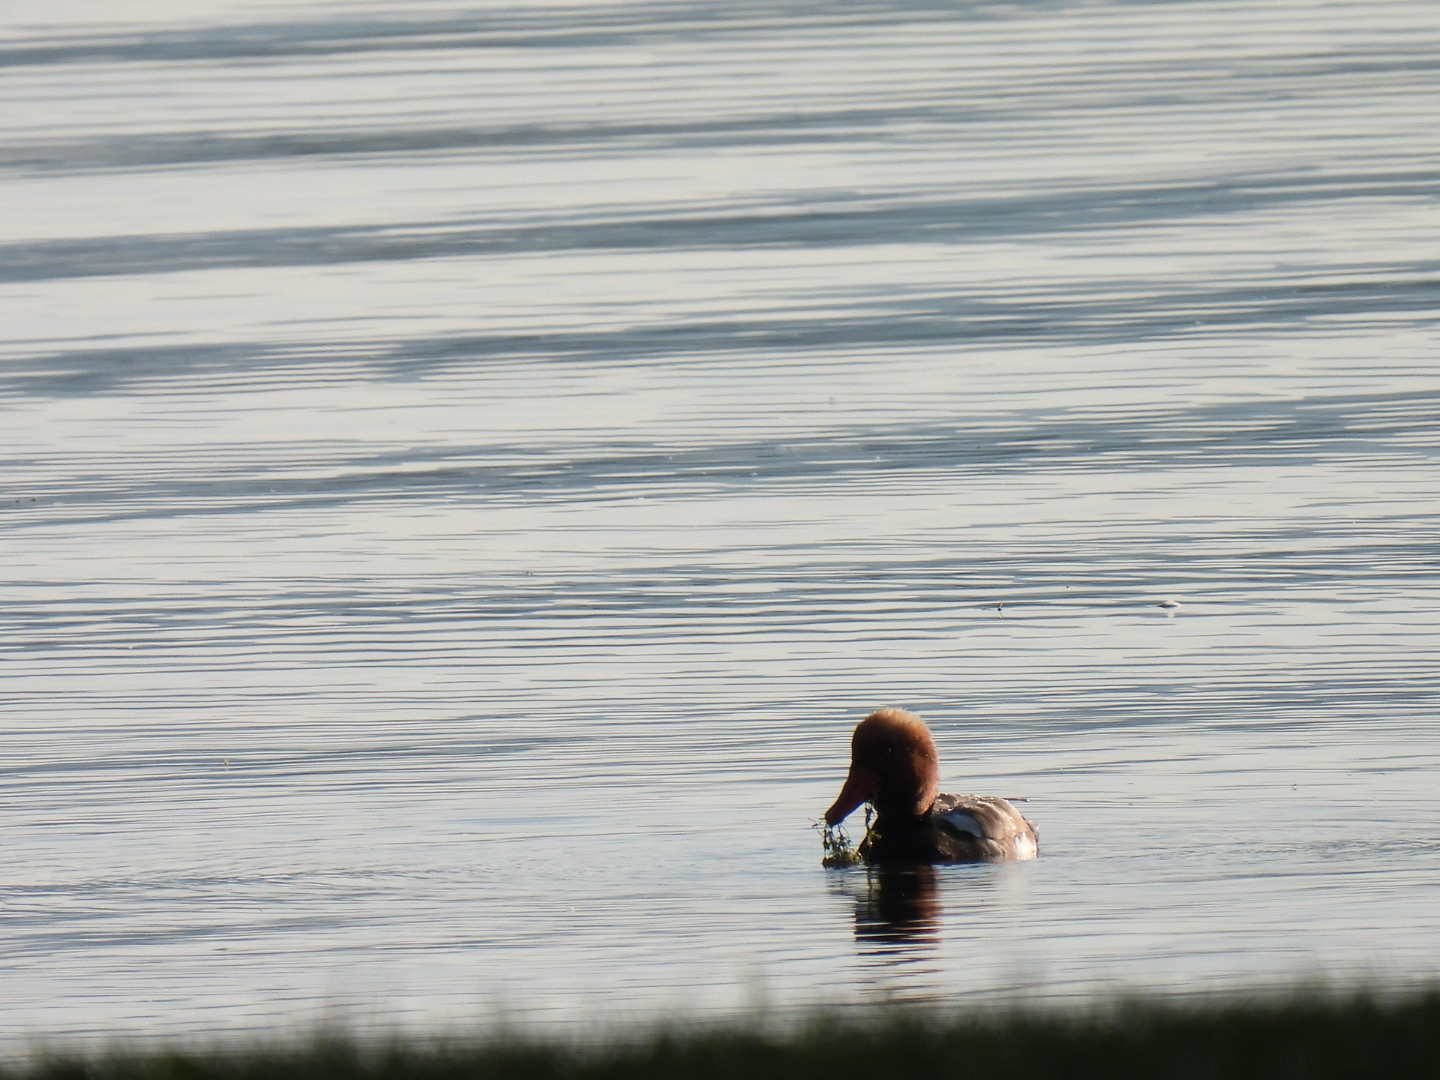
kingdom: Animalia
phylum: Chordata
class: Aves
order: Anseriformes
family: Anatidae
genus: Netta
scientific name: Netta rufina
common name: Red-crested pochard
